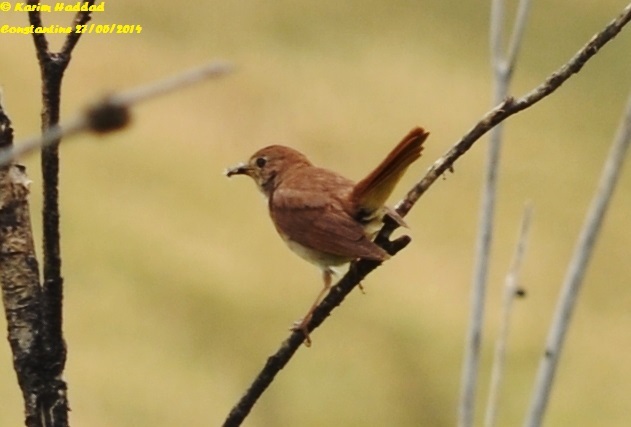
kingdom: Animalia
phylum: Chordata
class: Aves
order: Passeriformes
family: Muscicapidae
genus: Luscinia
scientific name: Luscinia megarhynchos
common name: Common nightingale
